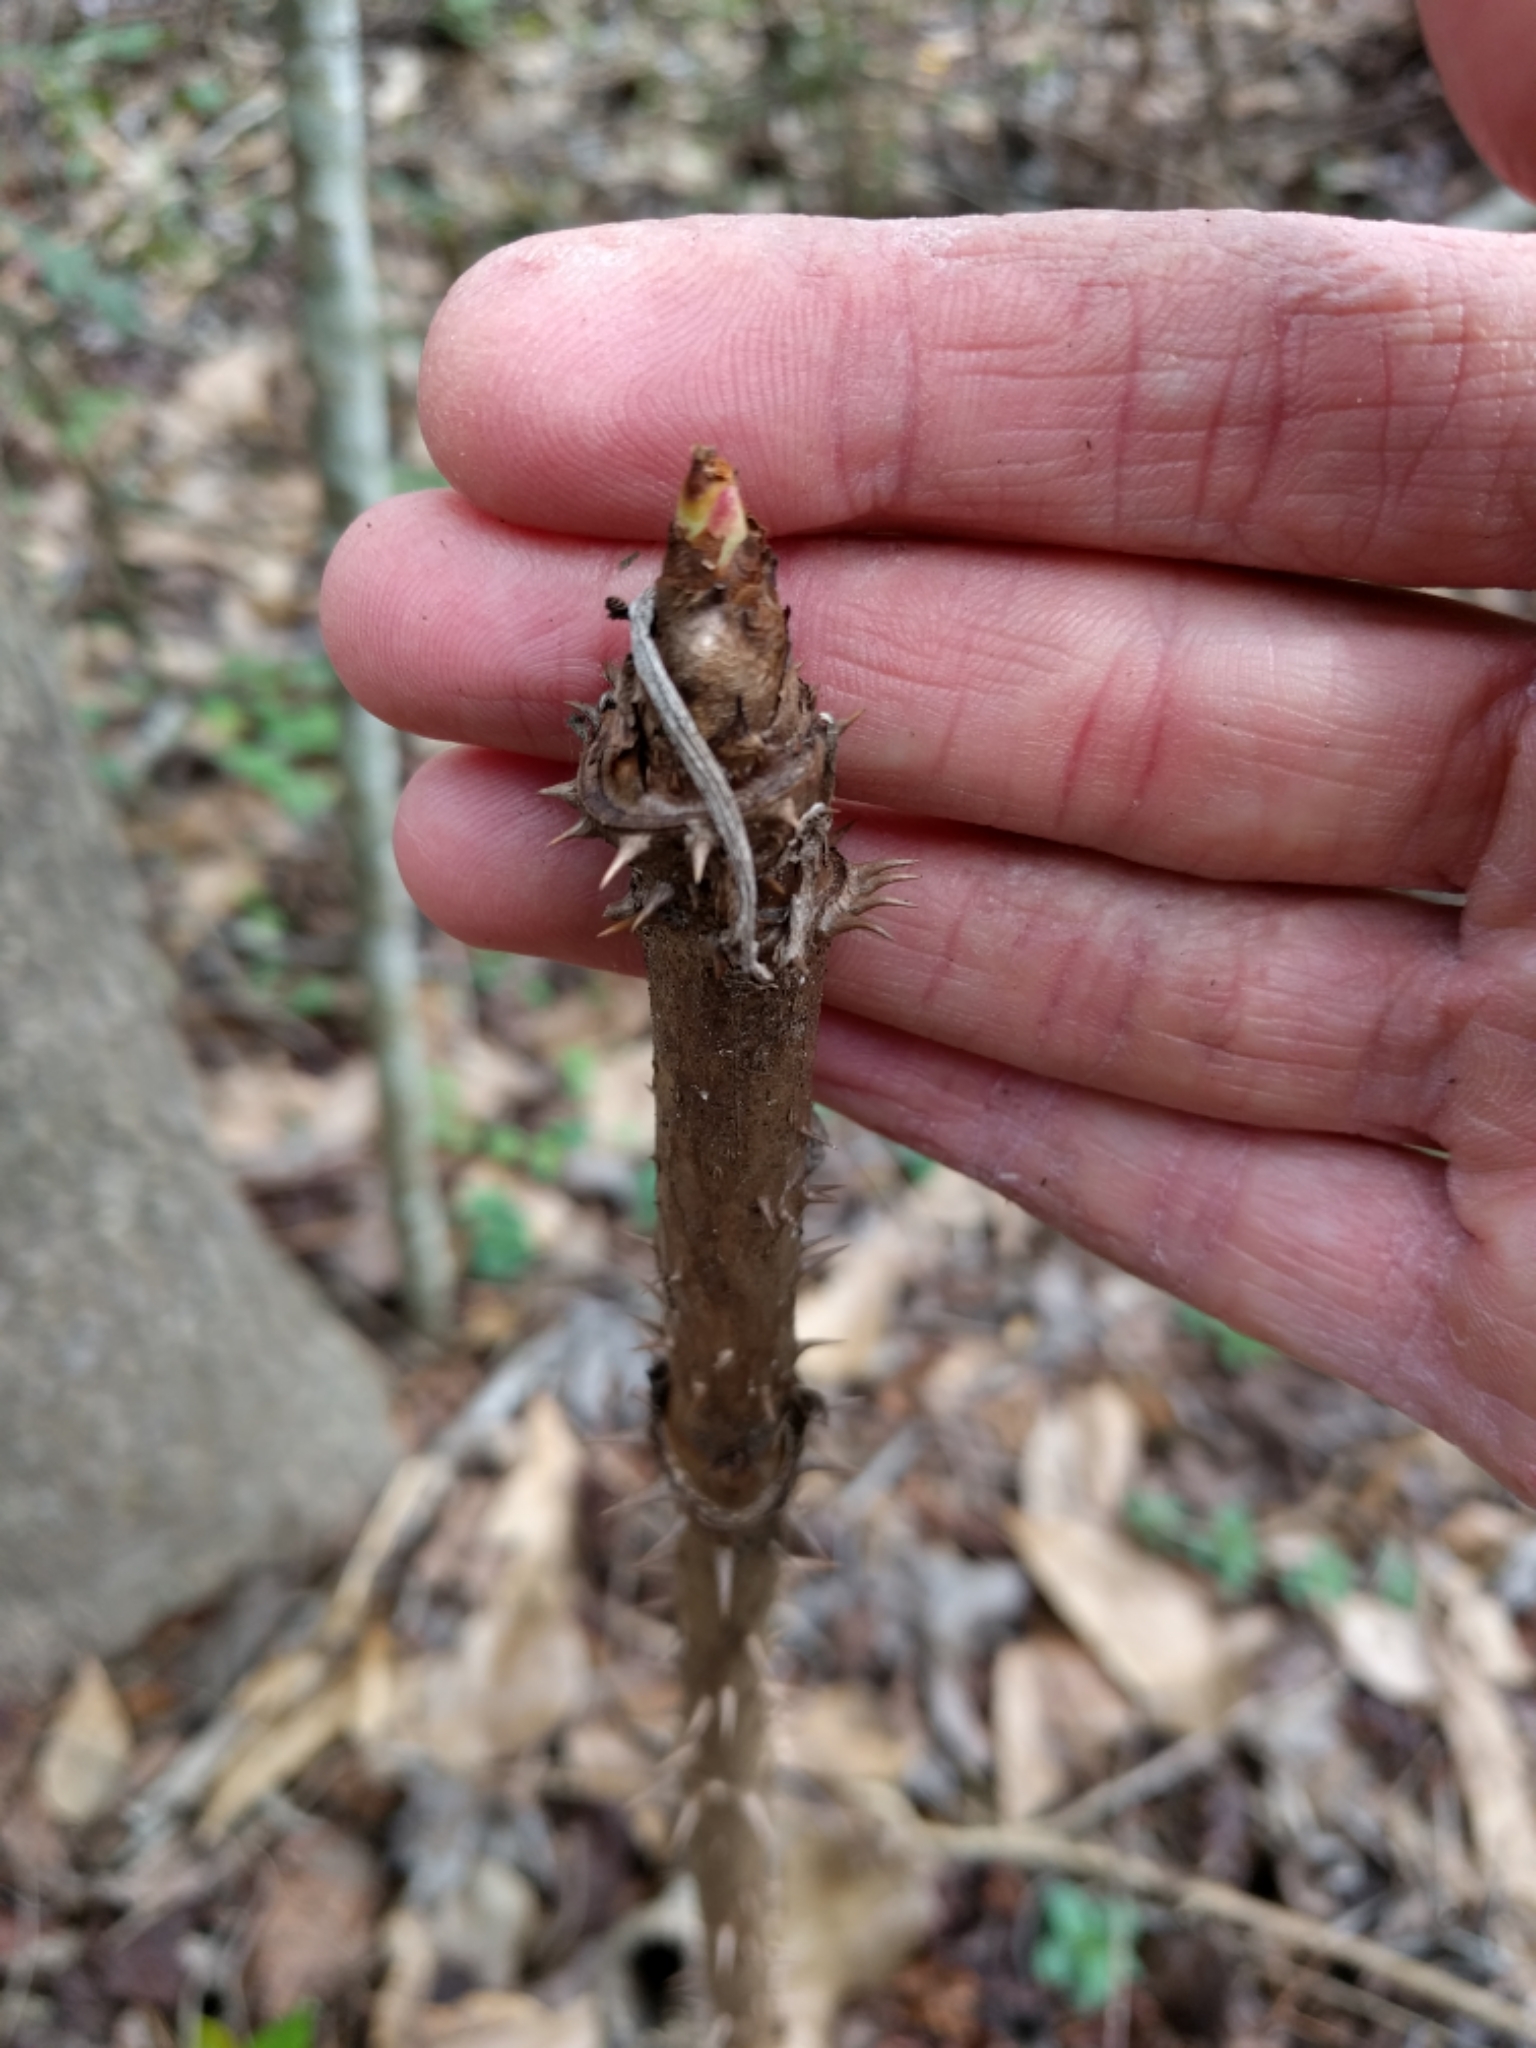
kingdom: Plantae
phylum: Tracheophyta
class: Magnoliopsida
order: Apiales
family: Araliaceae
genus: Aralia
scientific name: Aralia spinosa
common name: Hercules'-club
